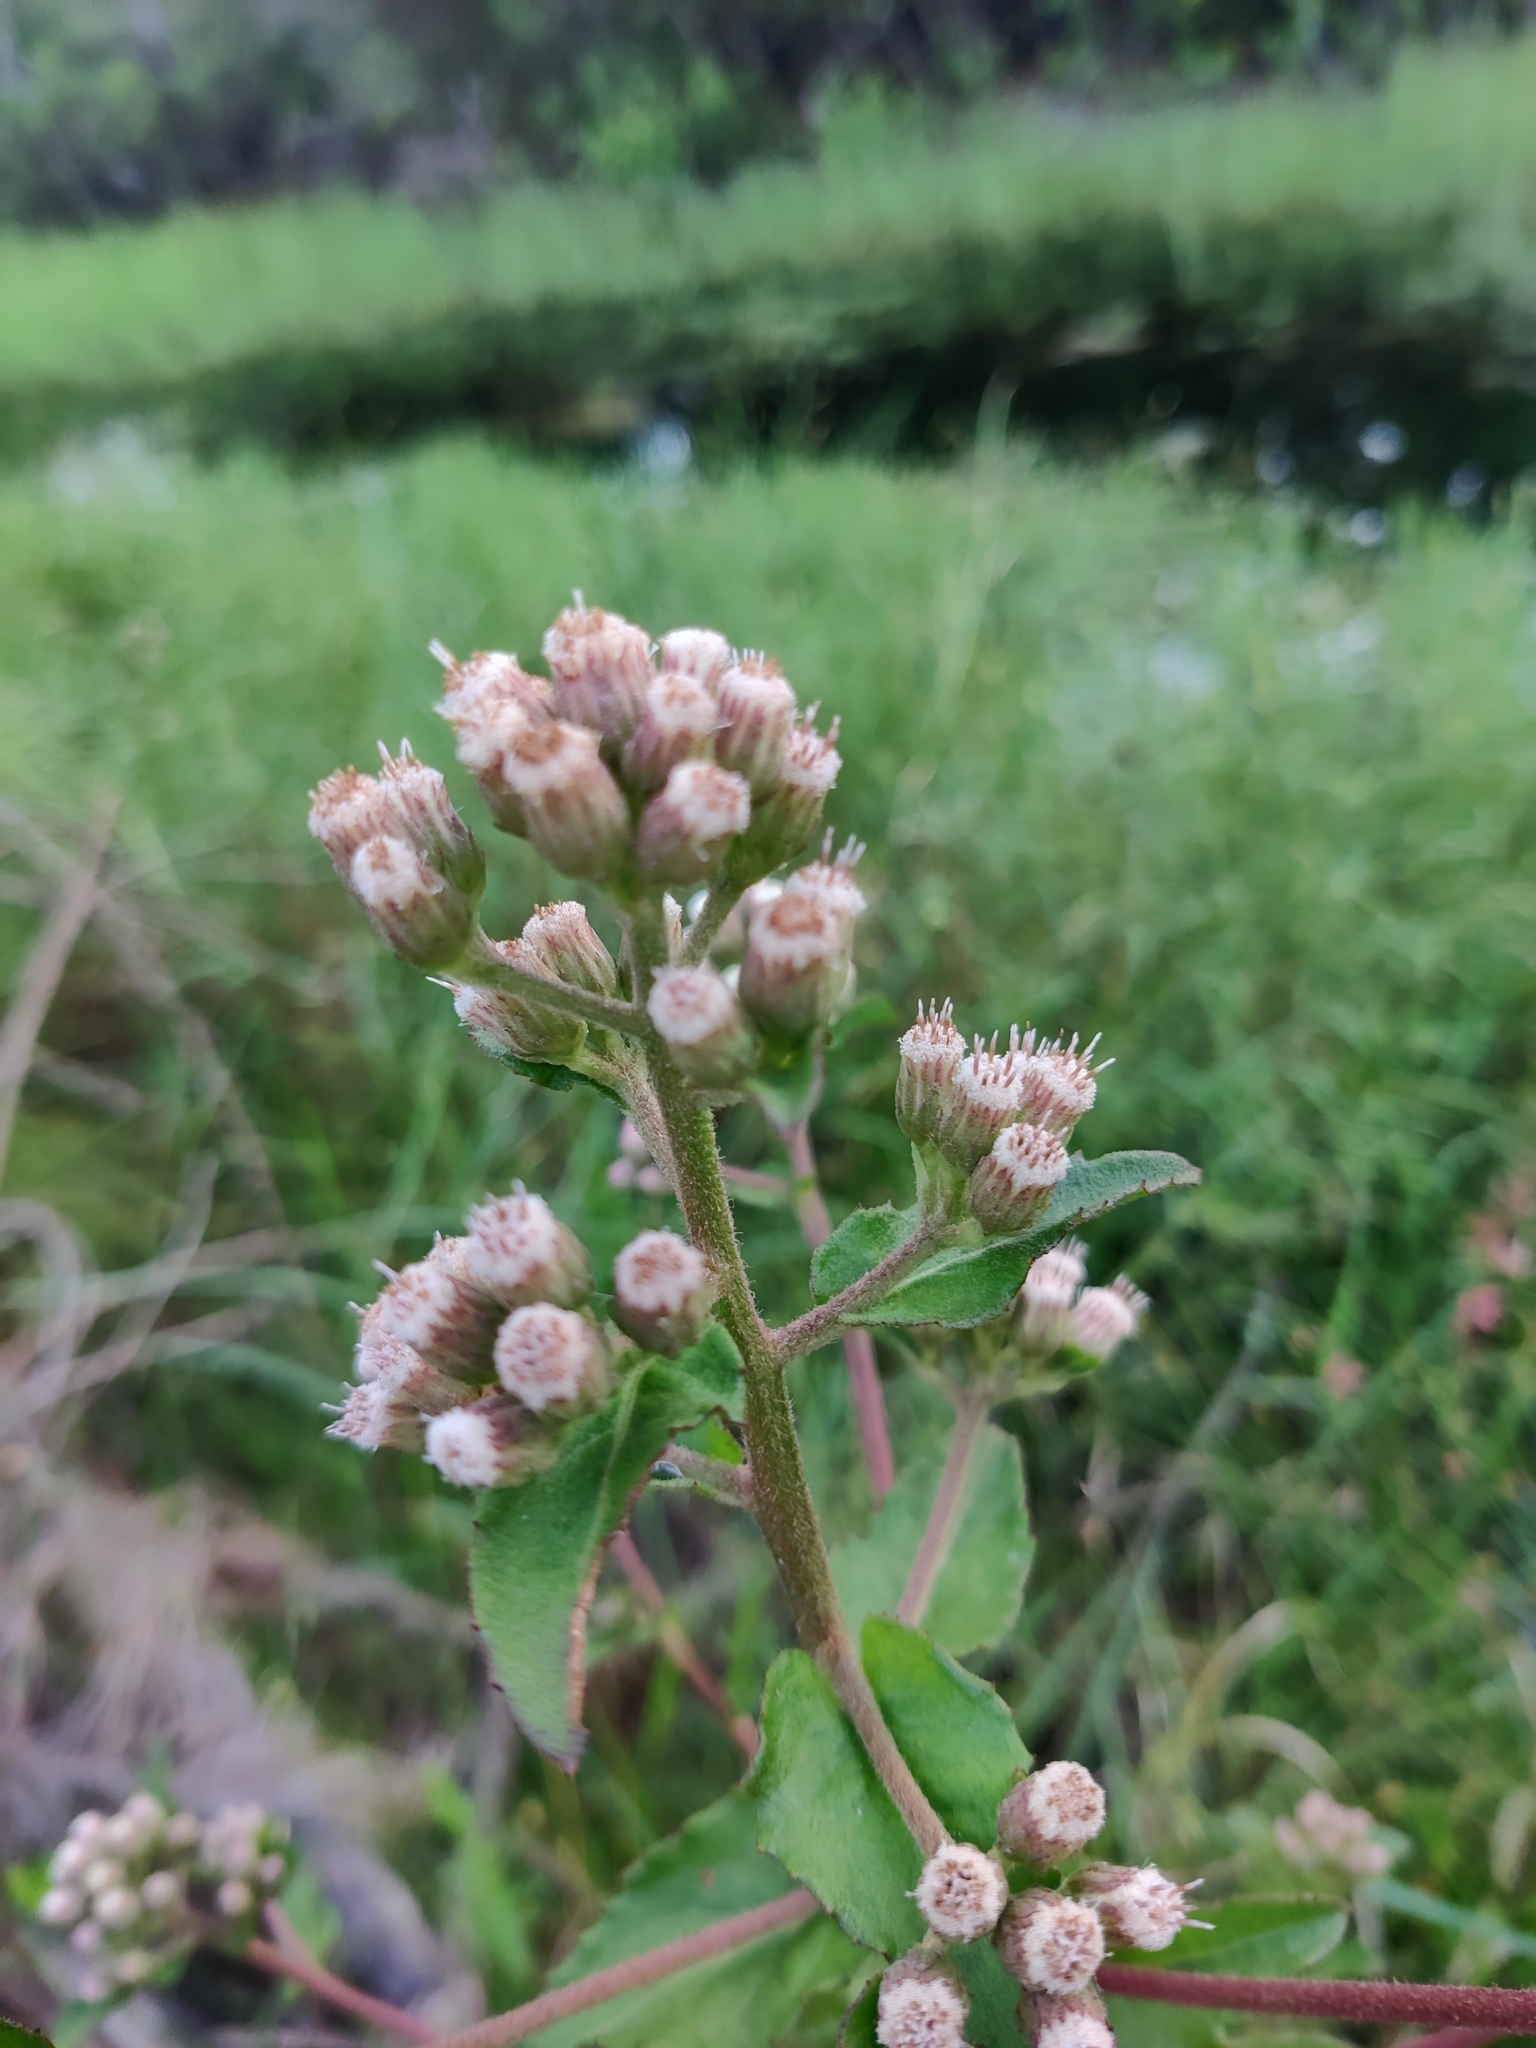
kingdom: Plantae
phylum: Tracheophyta
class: Magnoliopsida
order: Asterales
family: Asteraceae
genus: Pluchea
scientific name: Pluchea foetida
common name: Stinking camphorweed
